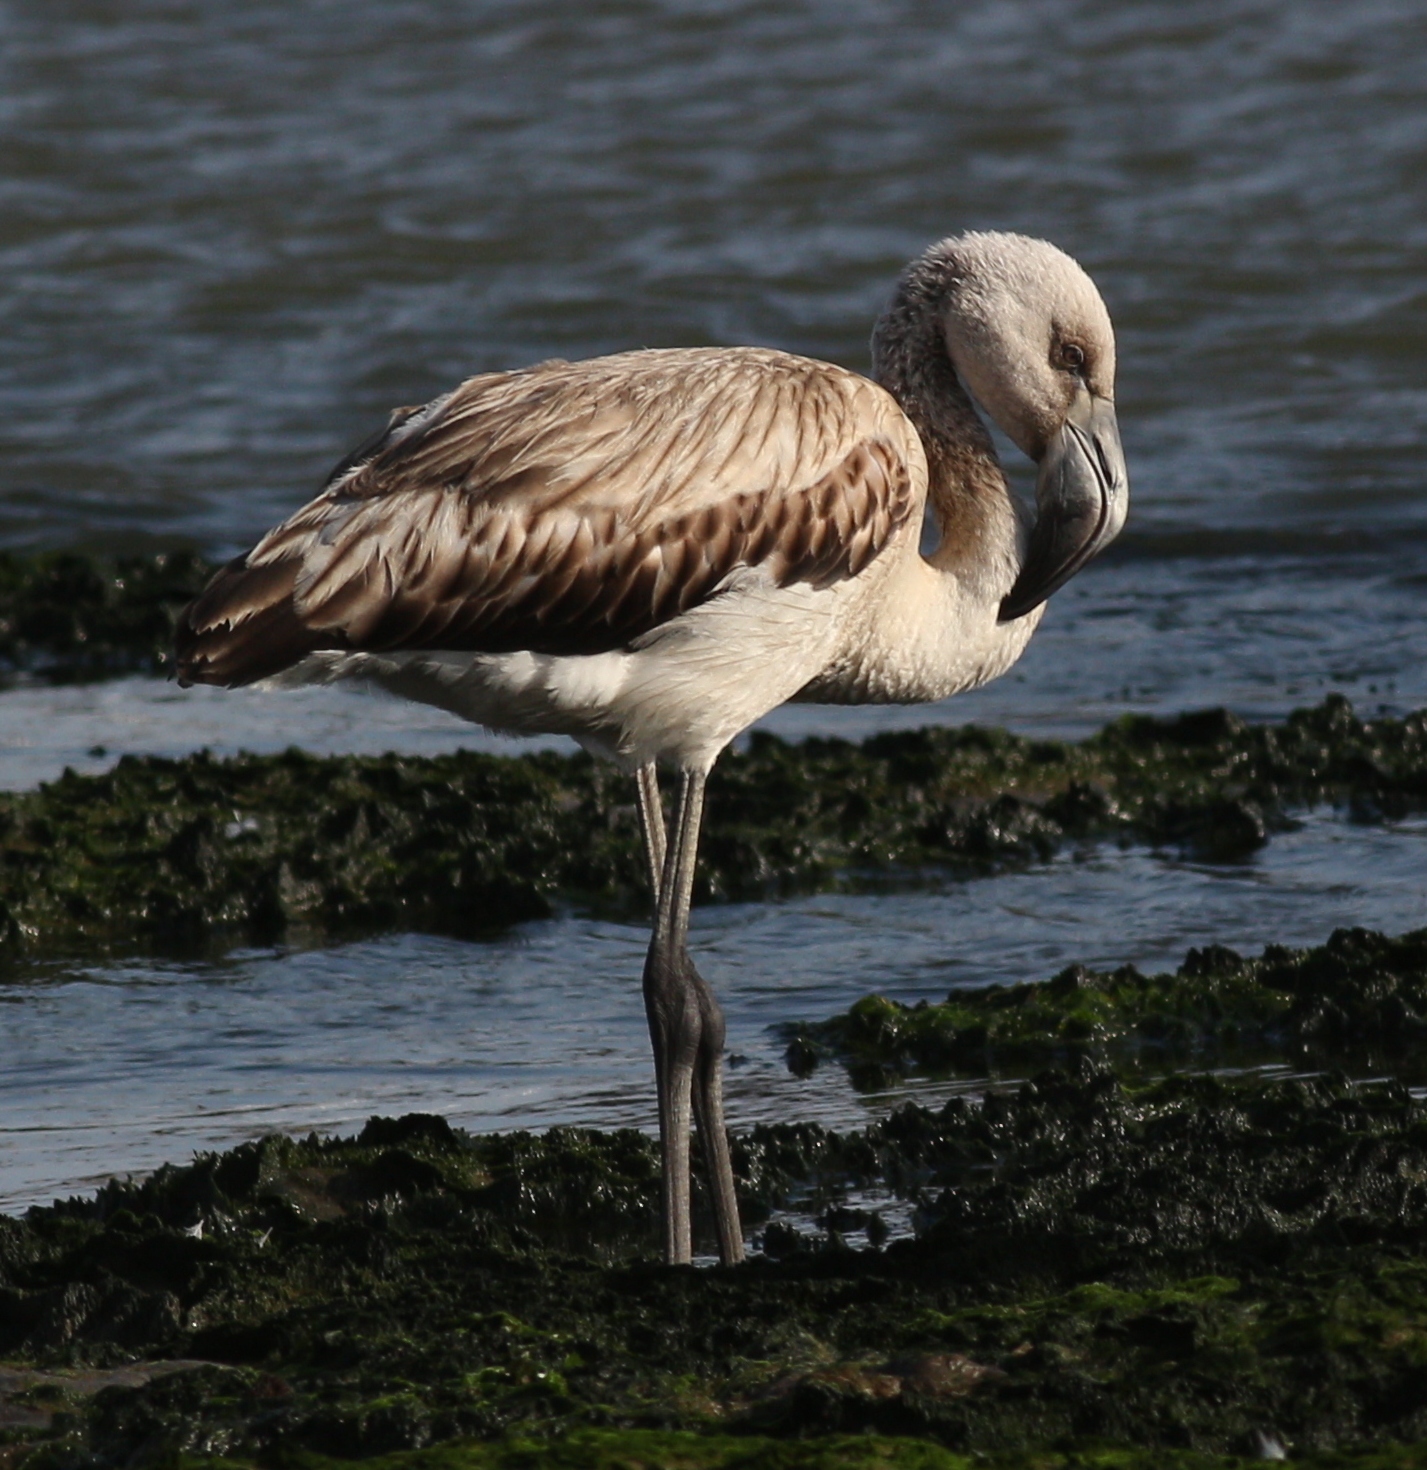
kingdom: Animalia
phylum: Chordata
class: Aves
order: Phoenicopteriformes
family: Phoenicopteridae
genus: Phoenicopterus
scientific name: Phoenicopterus chilensis
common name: Chilean flamingo
